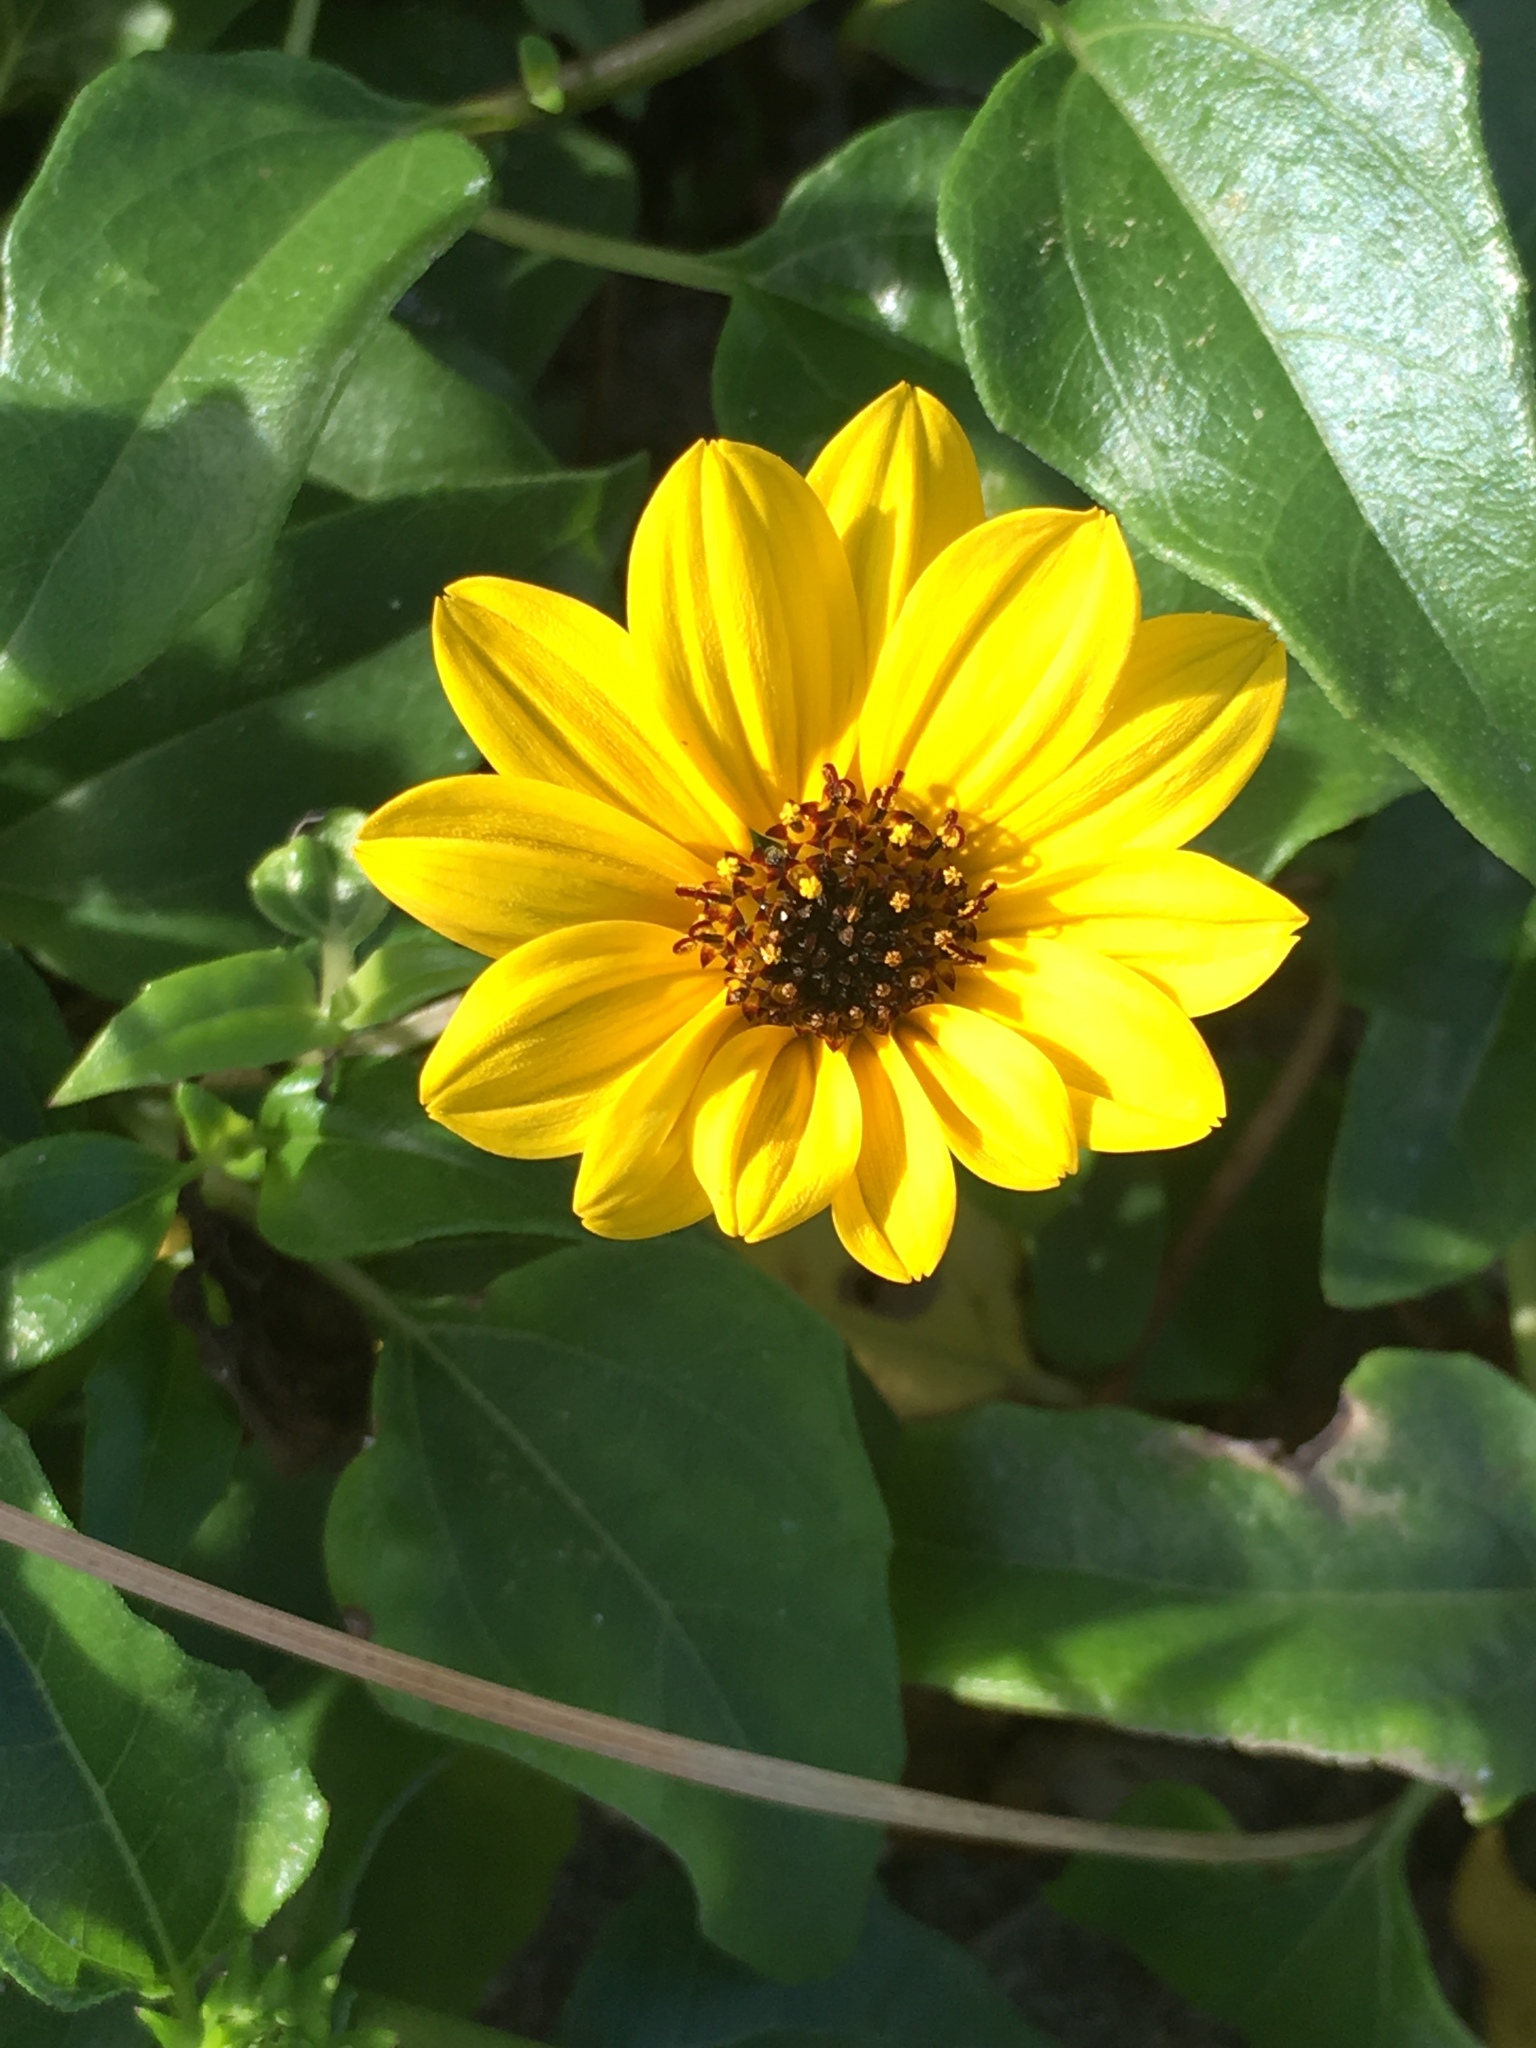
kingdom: Plantae
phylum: Tracheophyta
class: Magnoliopsida
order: Asterales
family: Asteraceae
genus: Helianthus
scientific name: Helianthus debilis
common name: Weak sunflower
